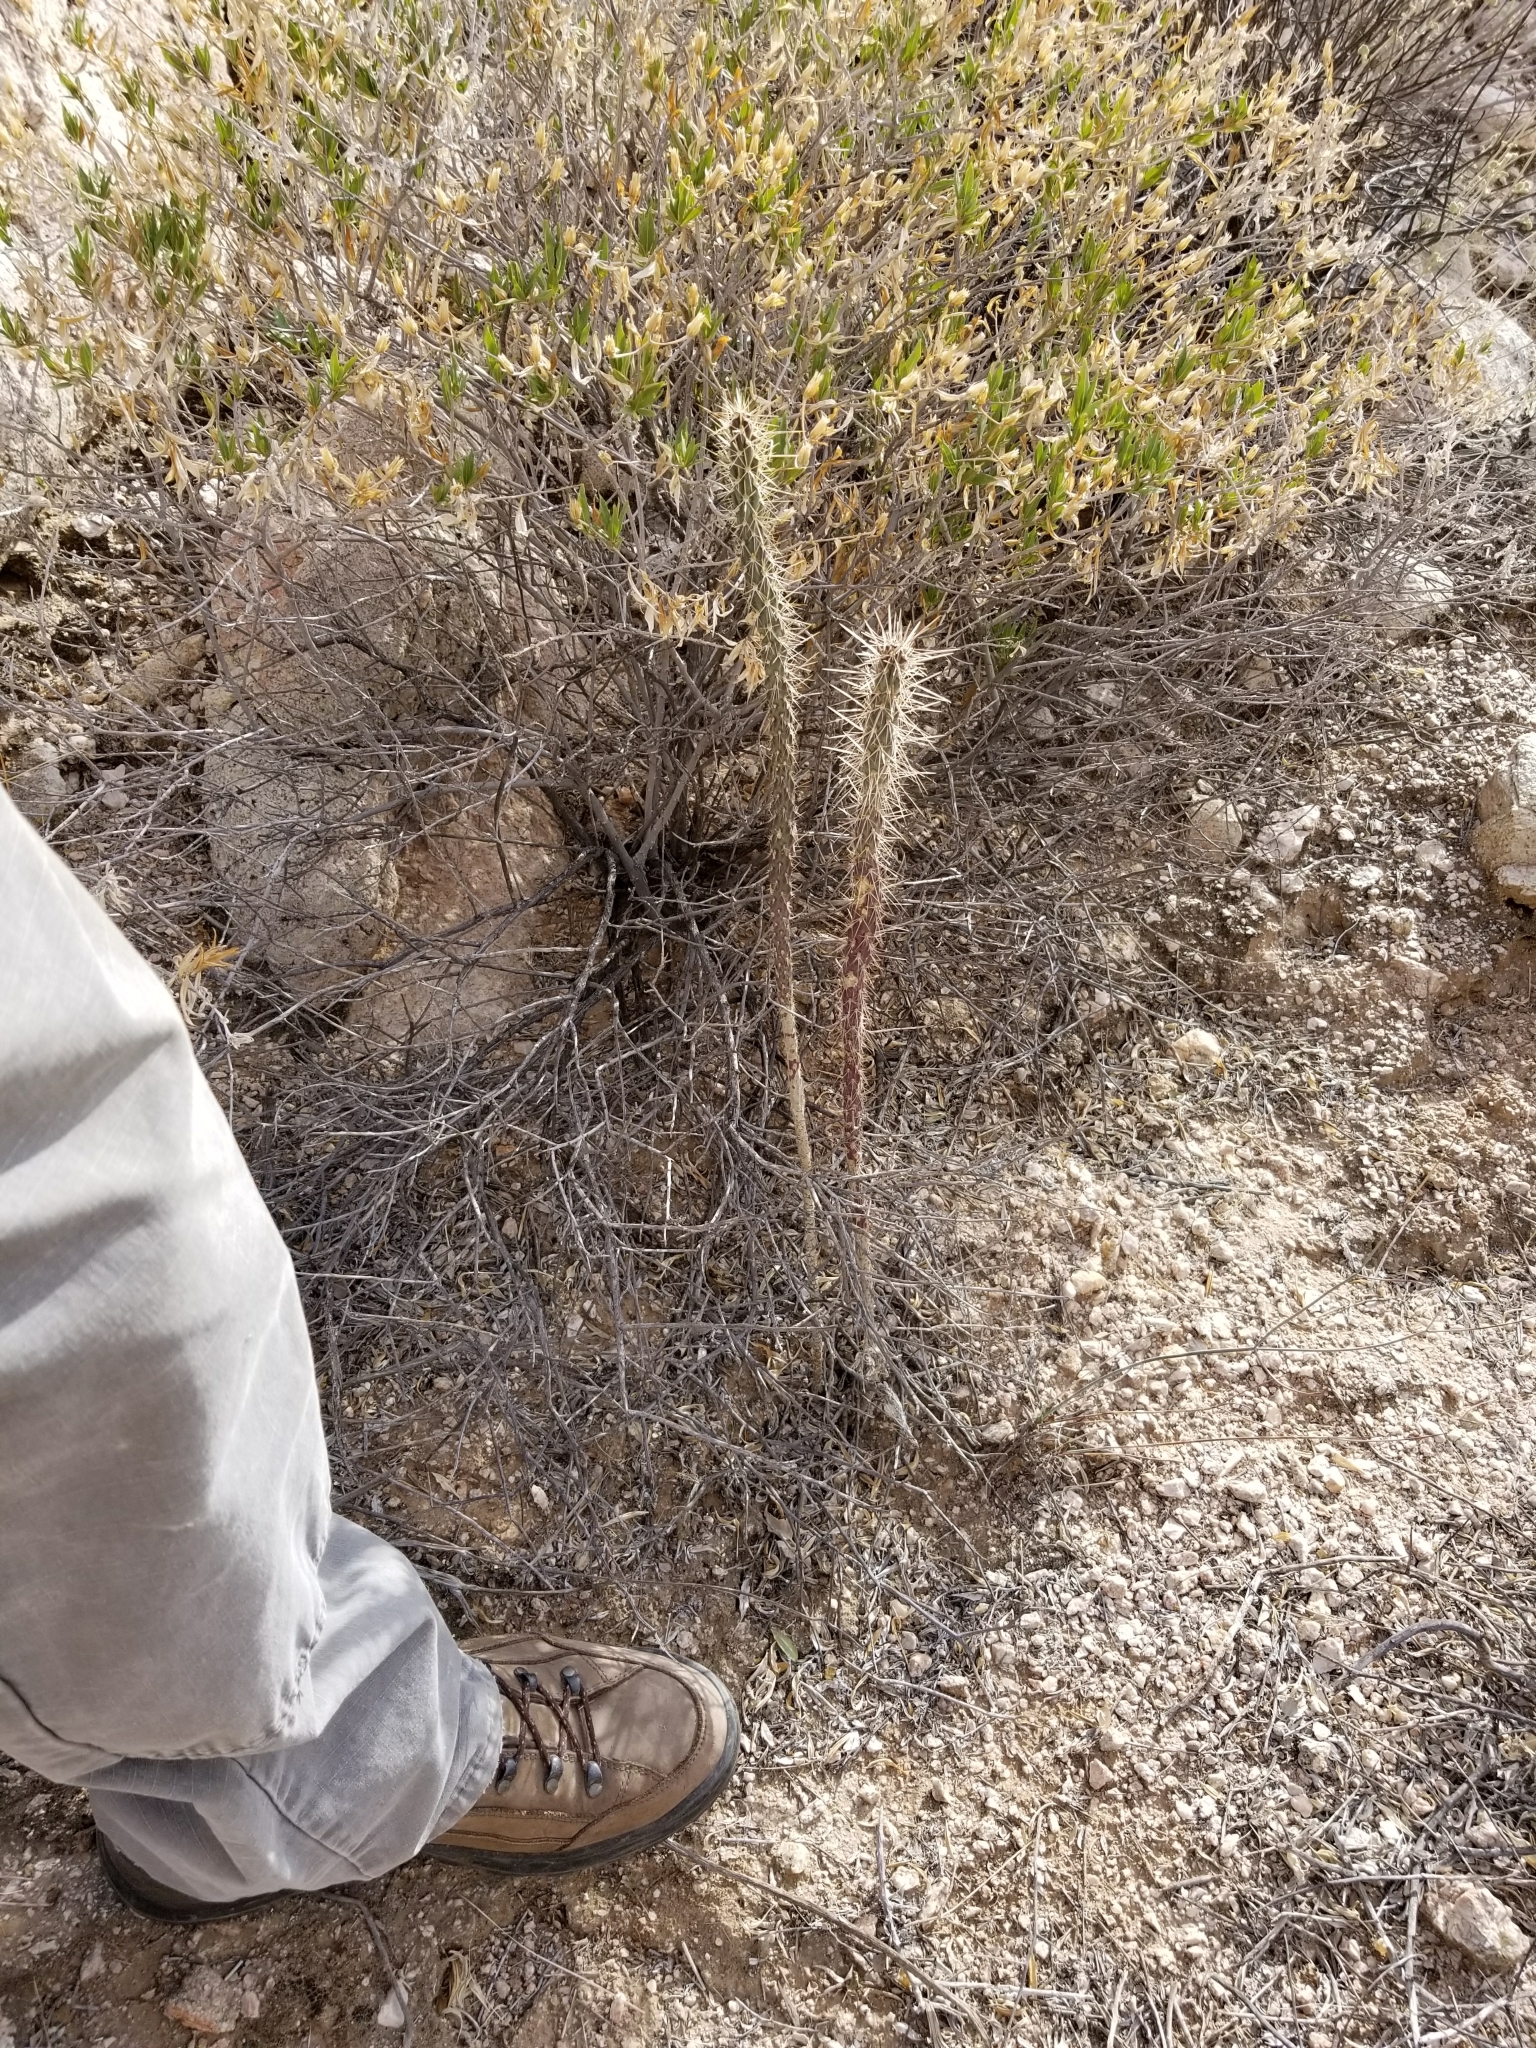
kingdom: Plantae
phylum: Tracheophyta
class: Magnoliopsida
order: Caryophyllales
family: Cactaceae
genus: Cylindropuntia
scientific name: Cylindropuntia acanthocarpa
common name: Buckhorn cholla
